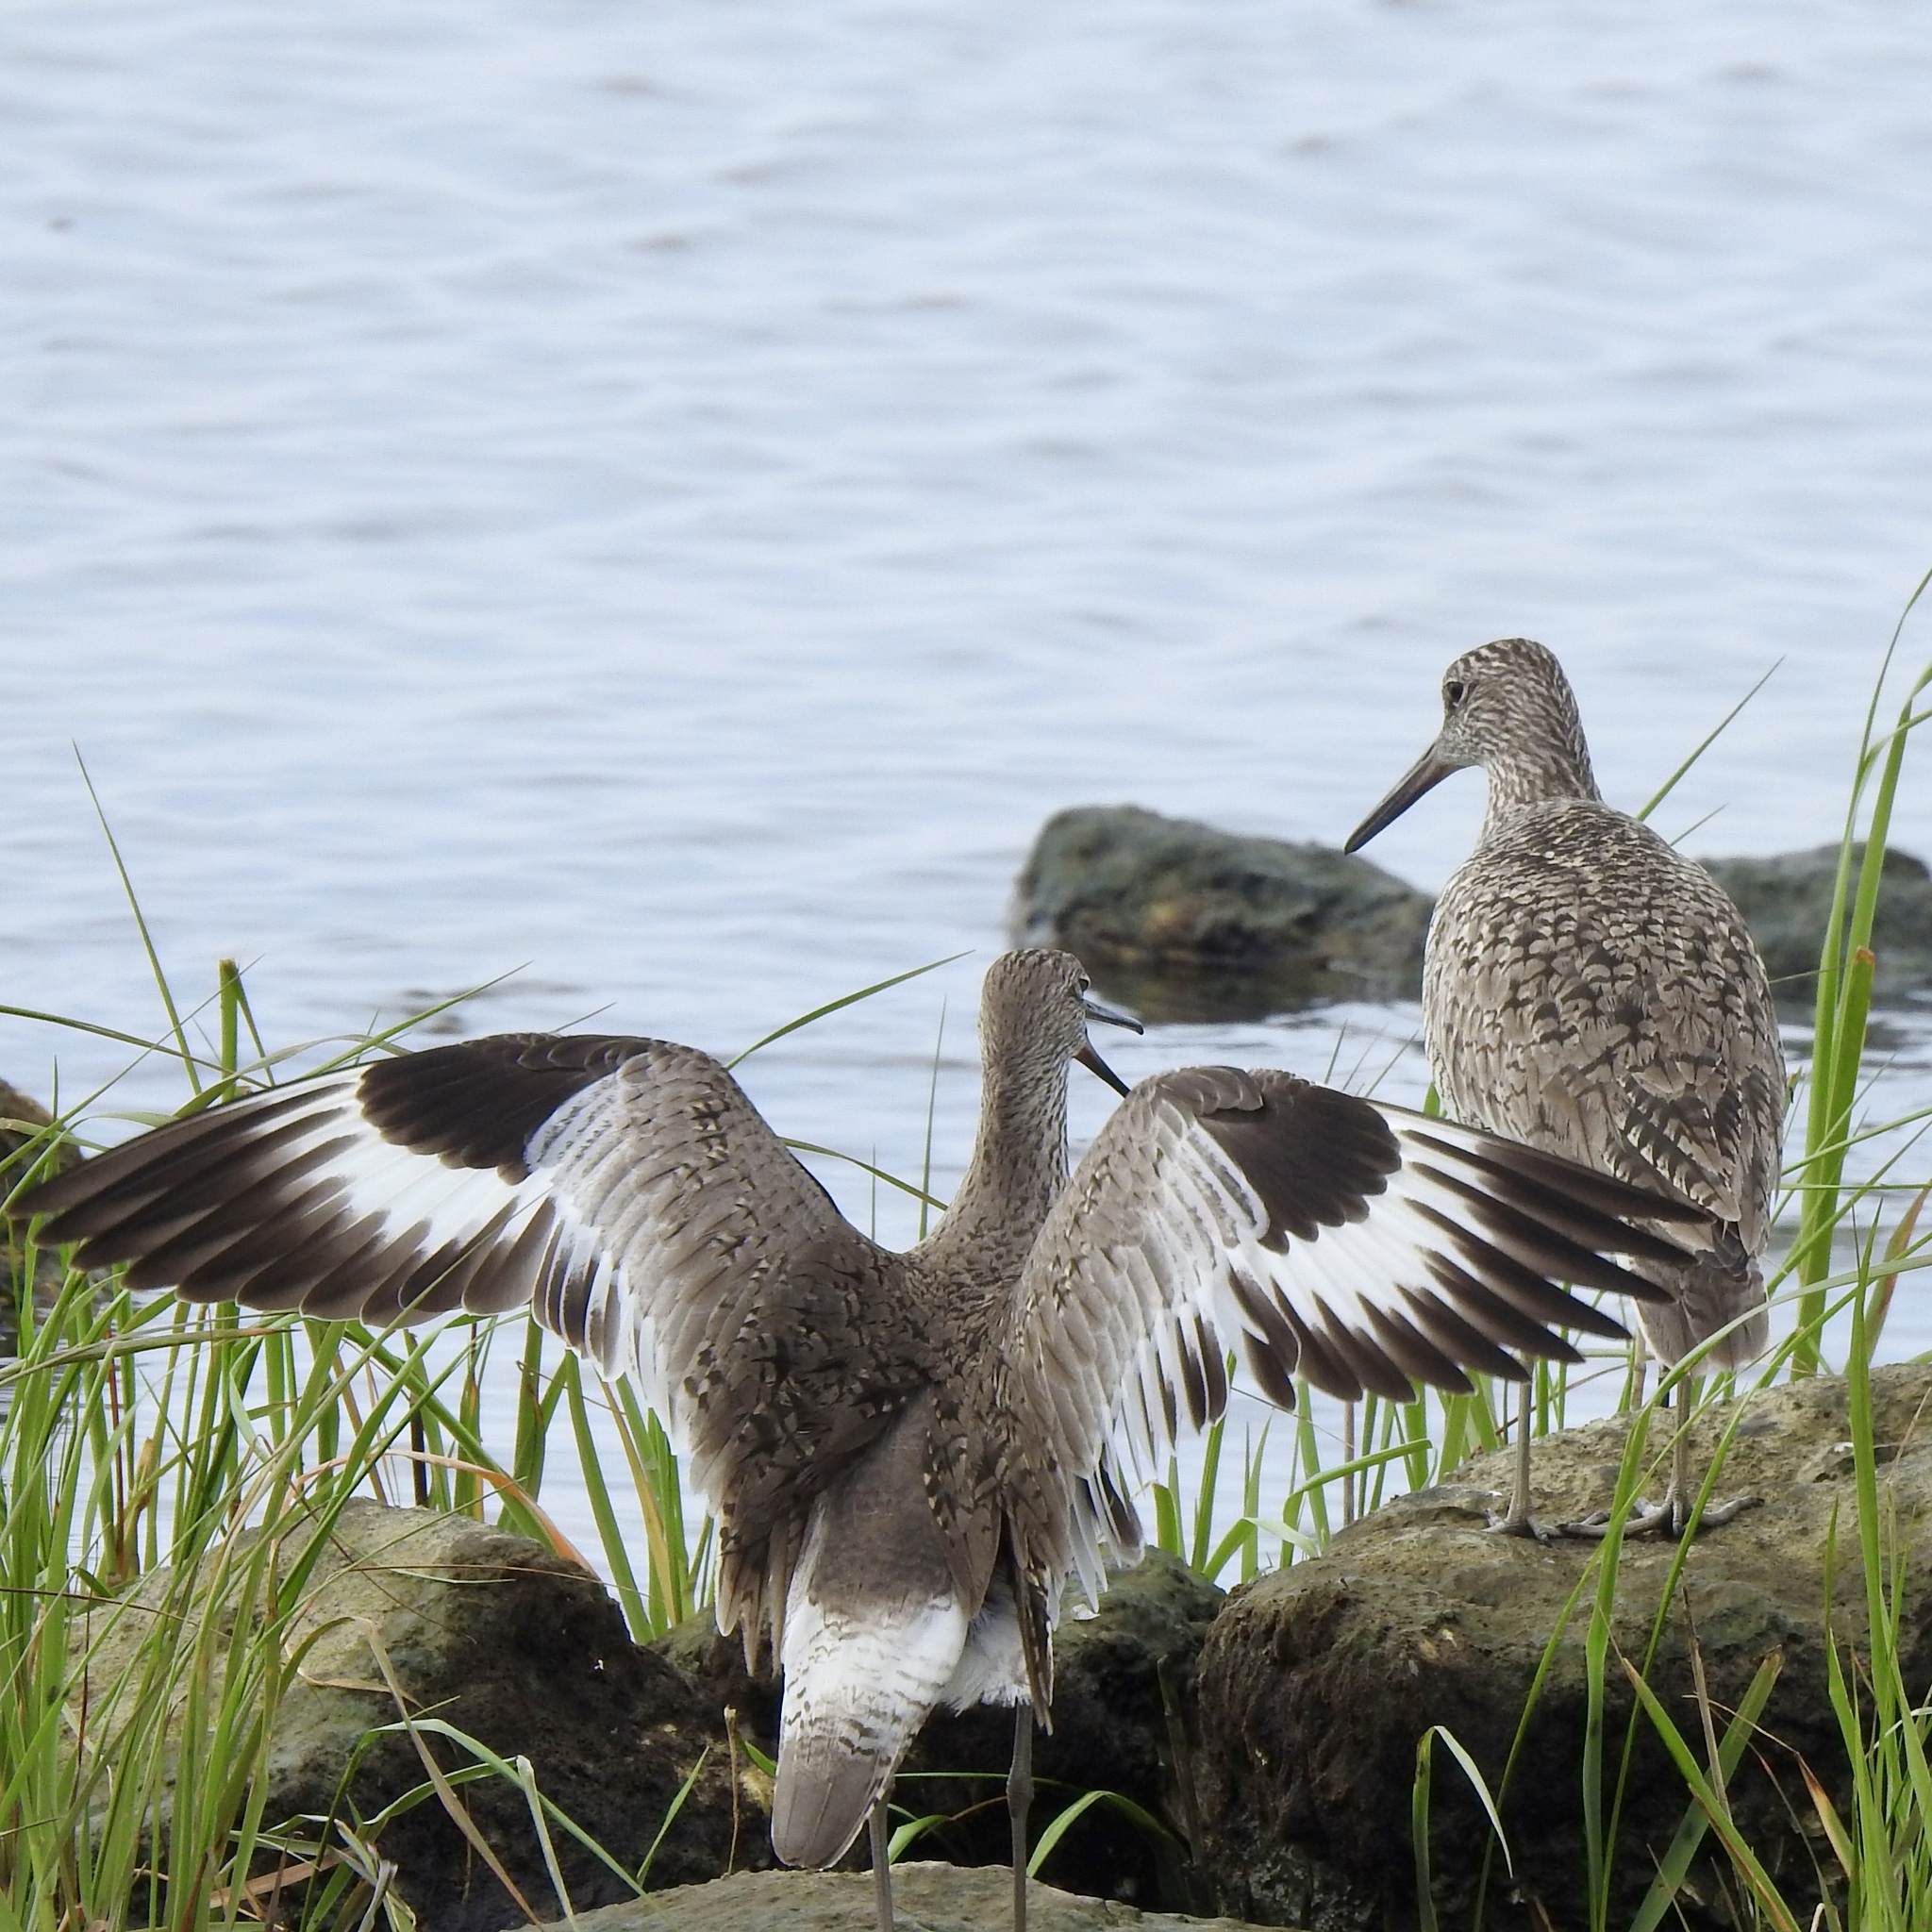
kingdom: Animalia
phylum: Chordata
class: Aves
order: Charadriiformes
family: Scolopacidae
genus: Tringa
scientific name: Tringa semipalmata
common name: Willet
